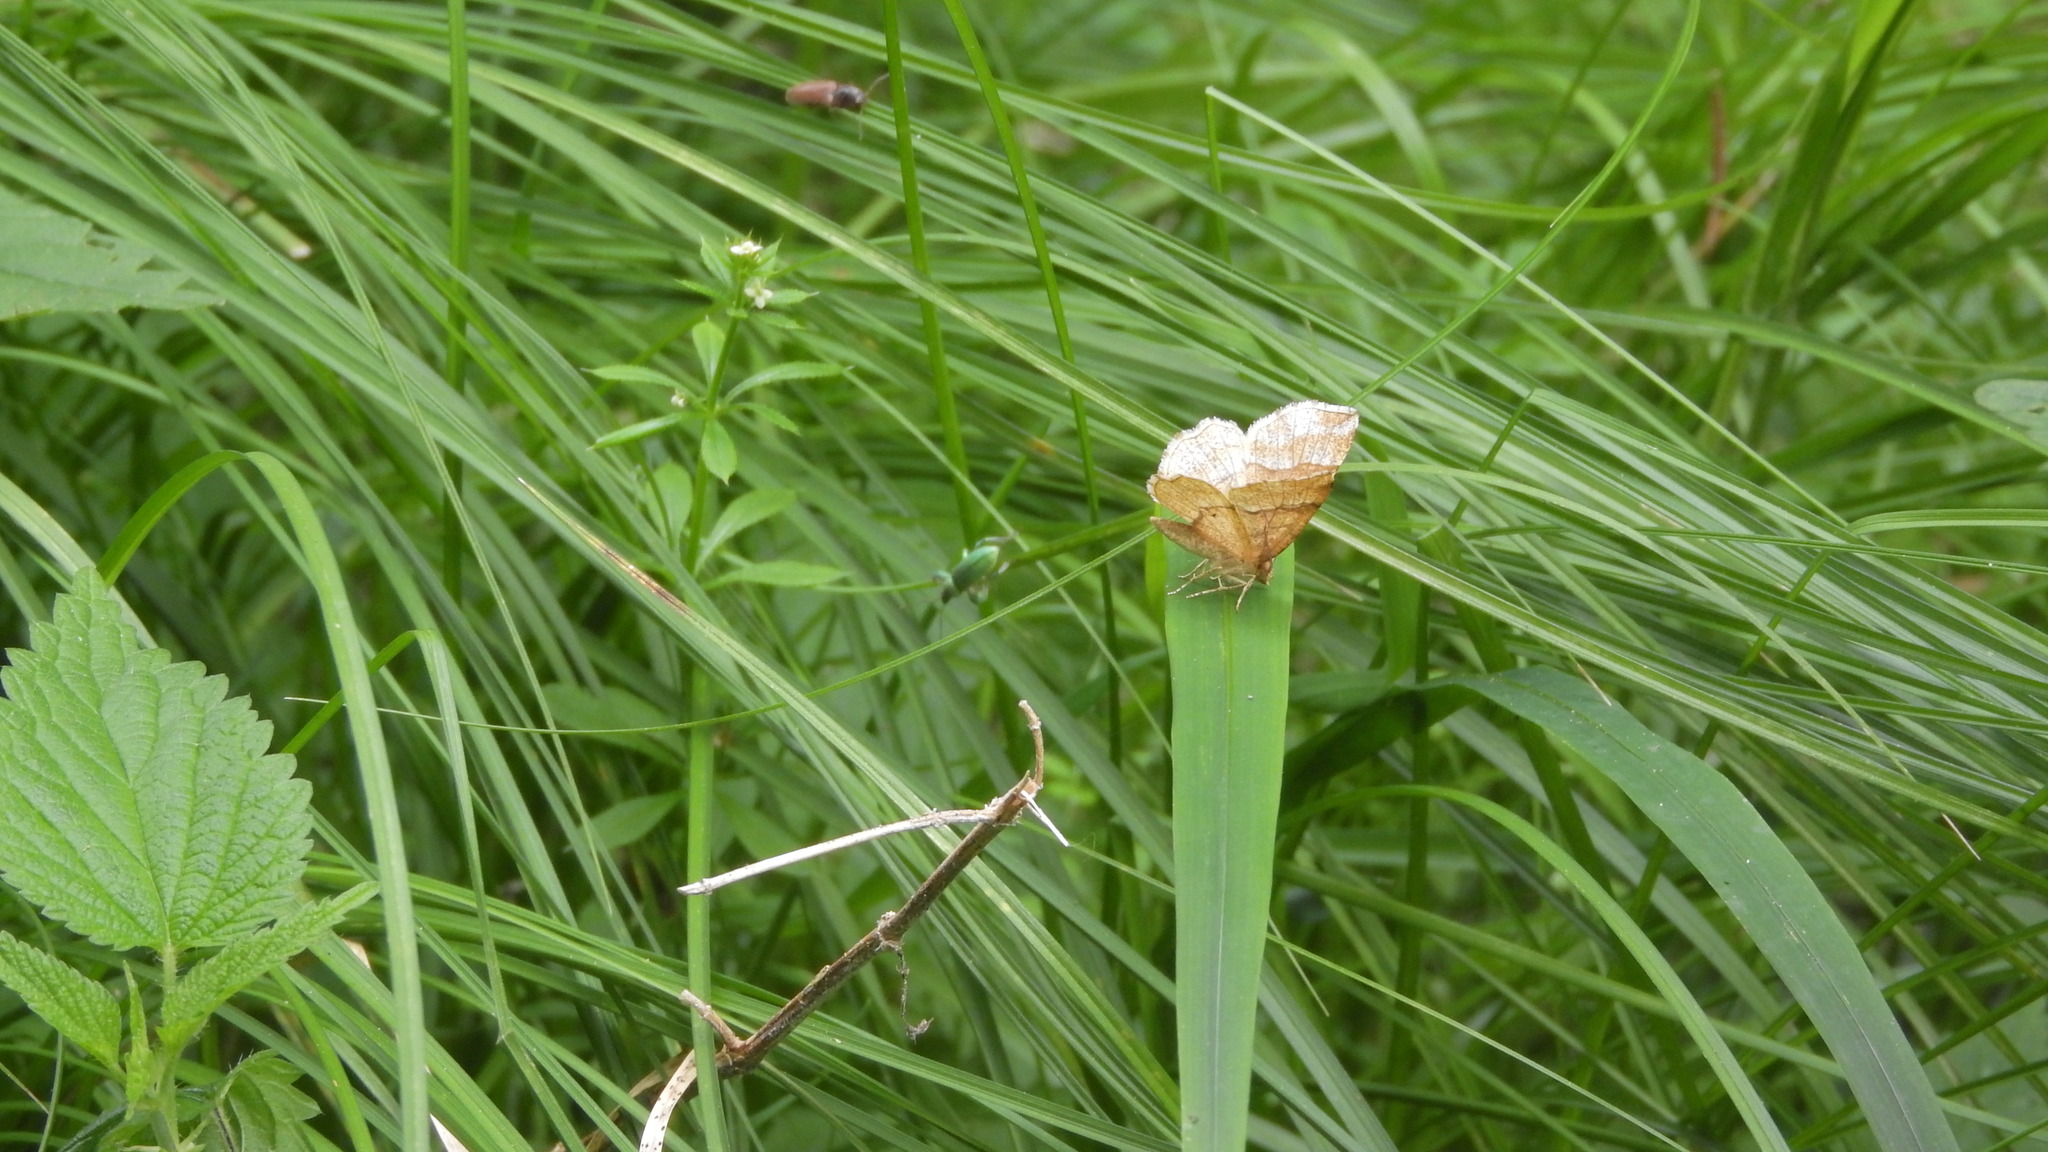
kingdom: Animalia
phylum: Arthropoda
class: Insecta
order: Lepidoptera
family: Geometridae
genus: Cepphis
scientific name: Cepphis advenaria
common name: Little thorn
